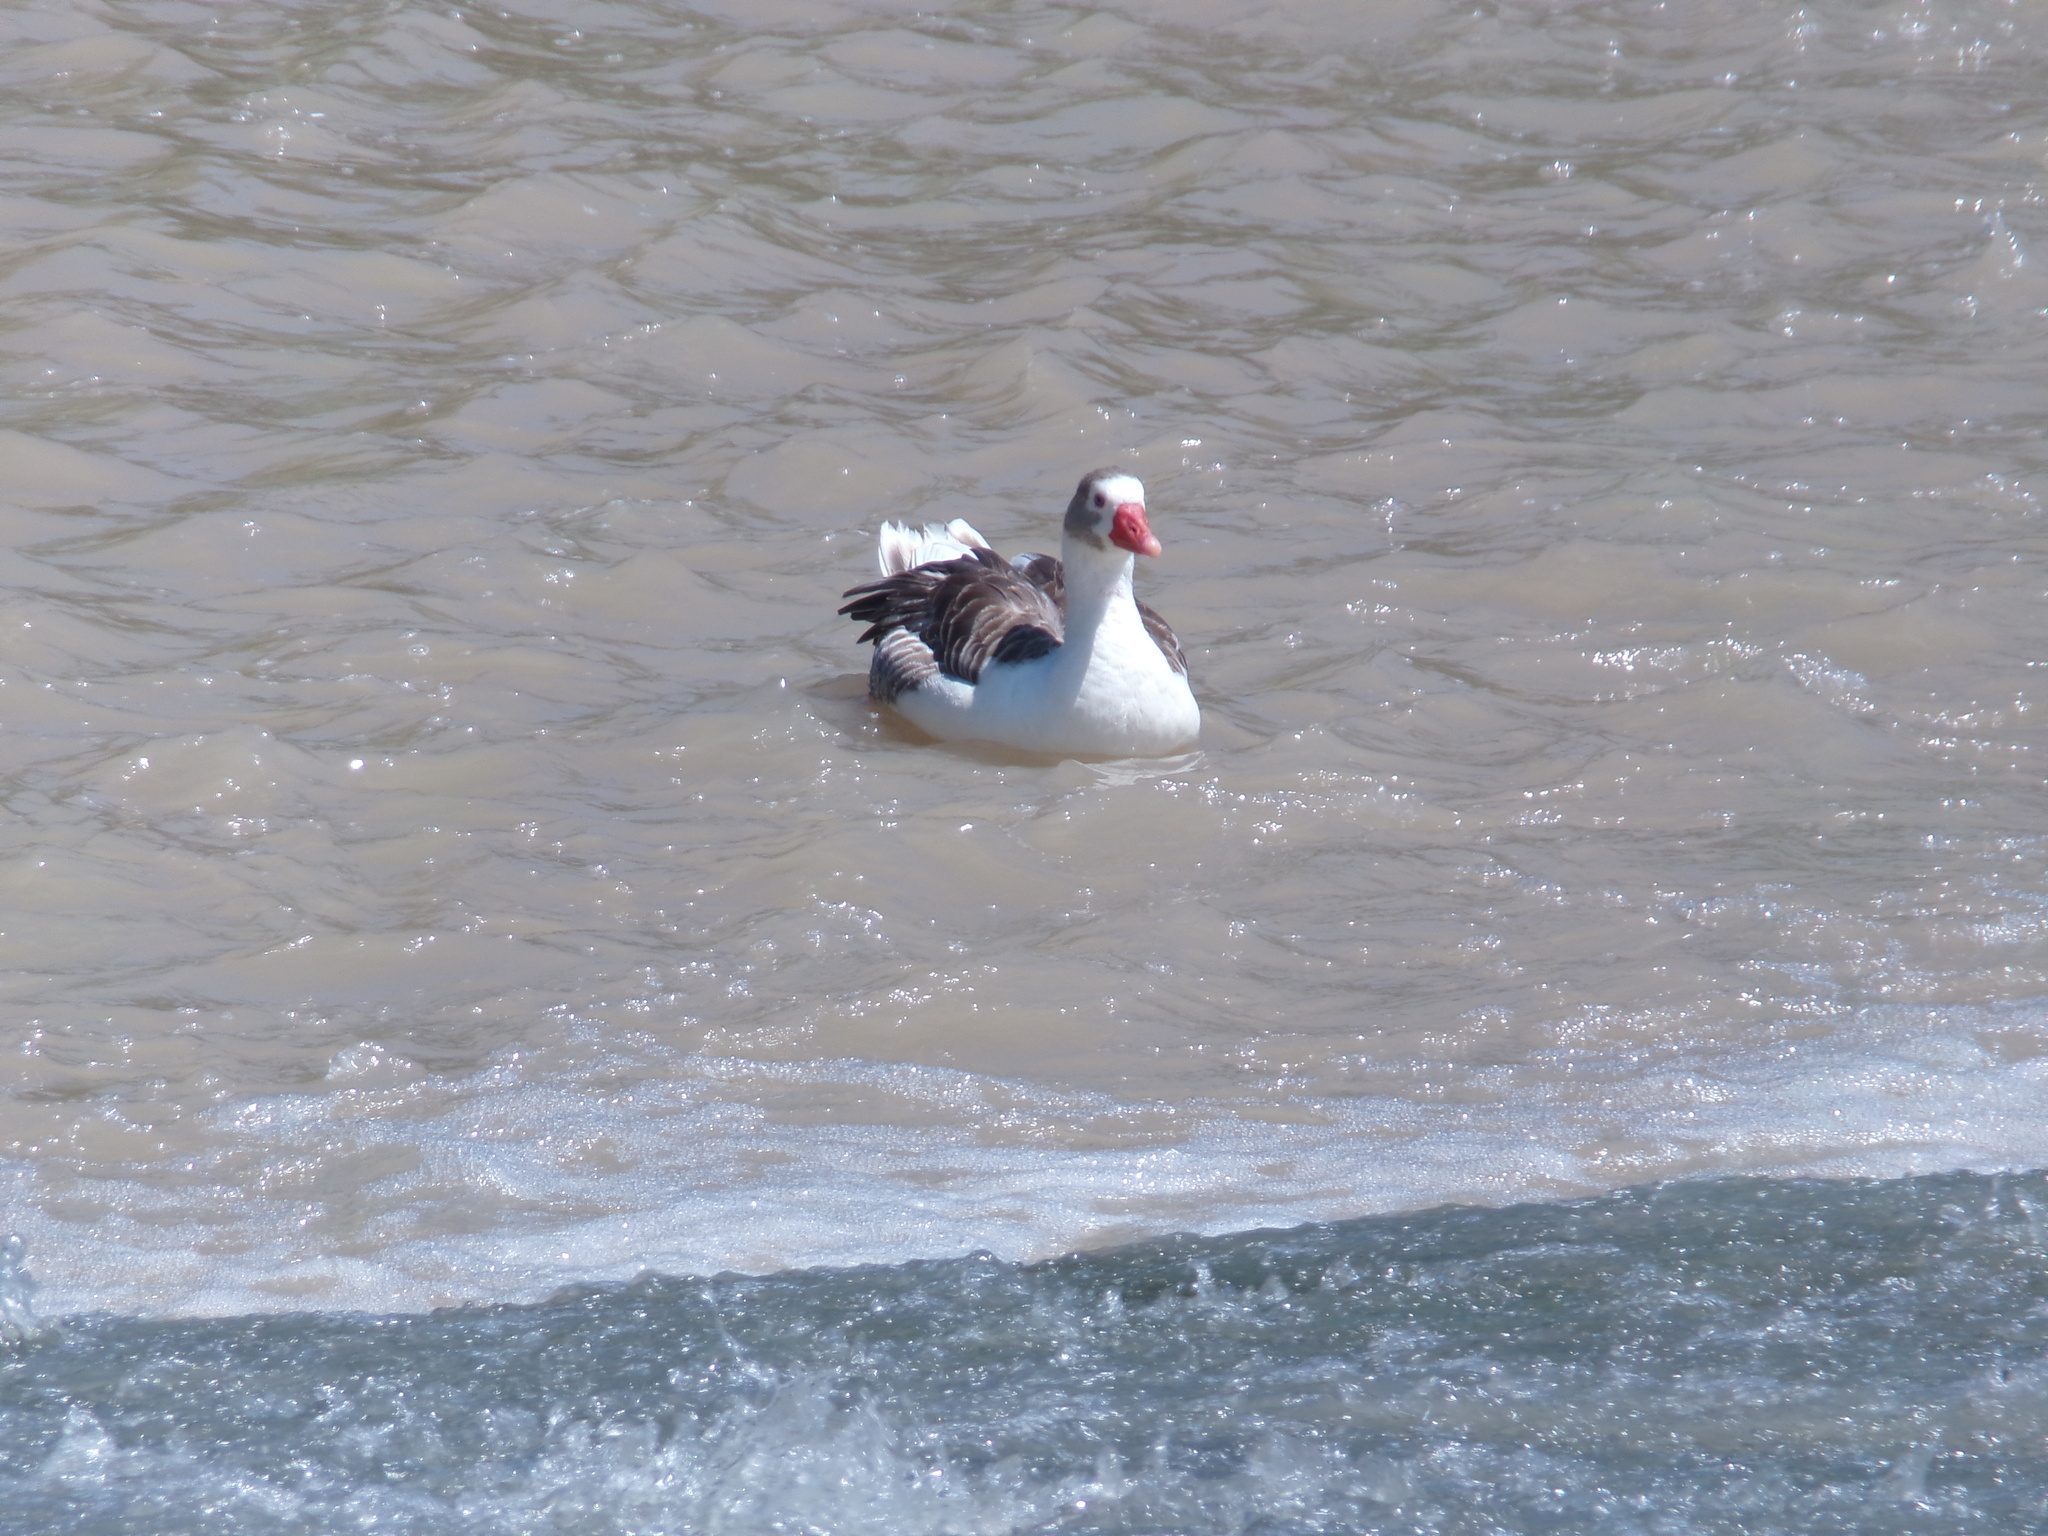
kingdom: Animalia
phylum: Chordata
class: Aves
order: Anseriformes
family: Anatidae
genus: Anser
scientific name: Anser anser
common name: Greylag goose
